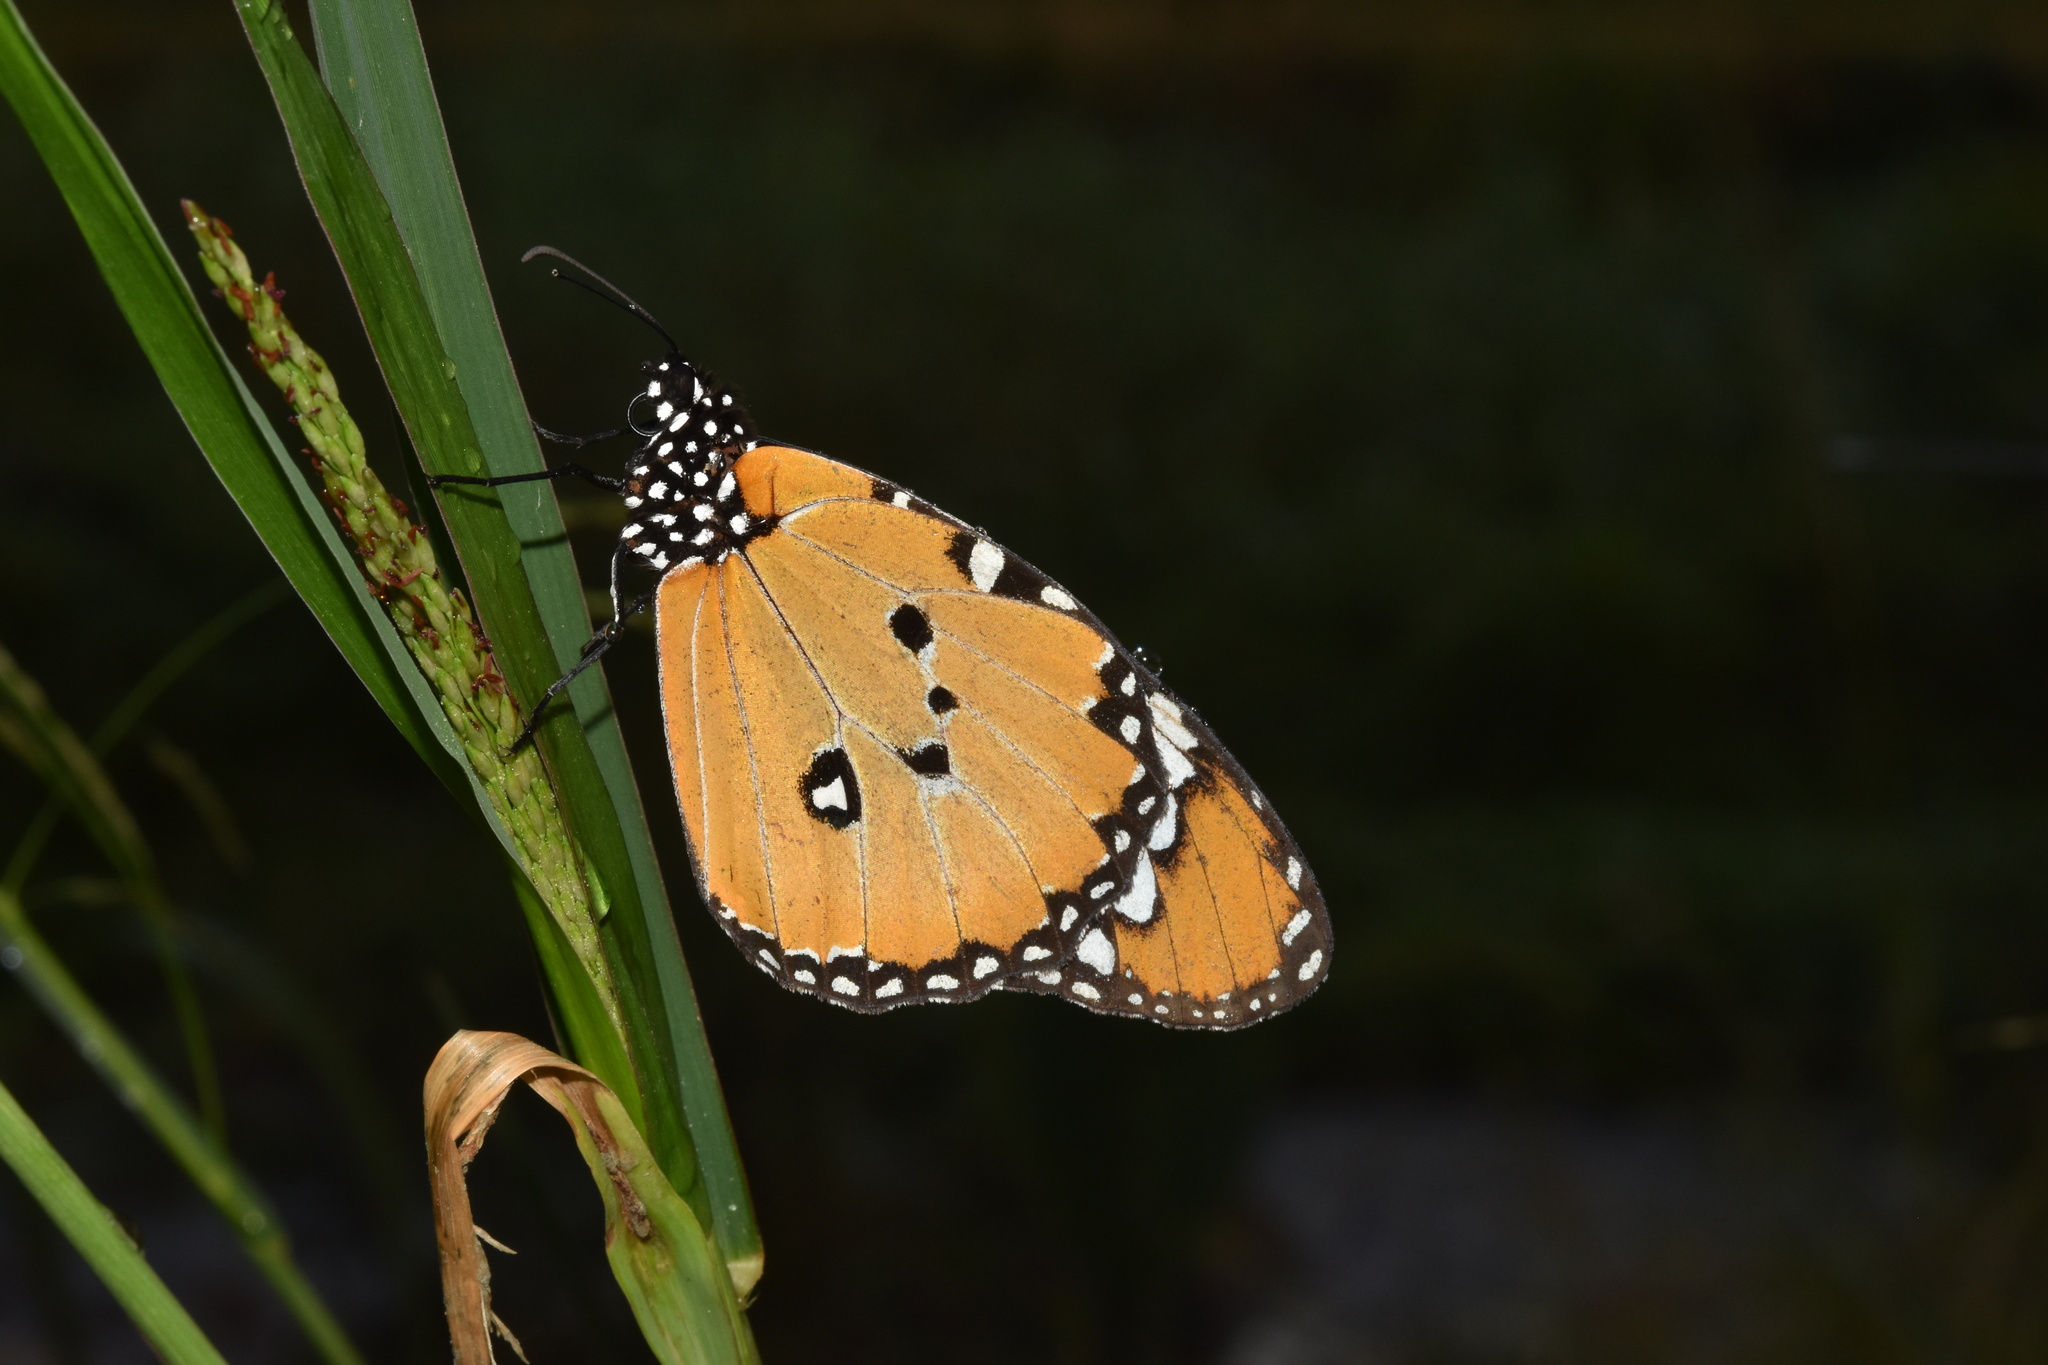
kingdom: Animalia
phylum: Arthropoda
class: Insecta
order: Lepidoptera
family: Nymphalidae
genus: Danaus
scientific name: Danaus chrysippus
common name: Plain tiger
